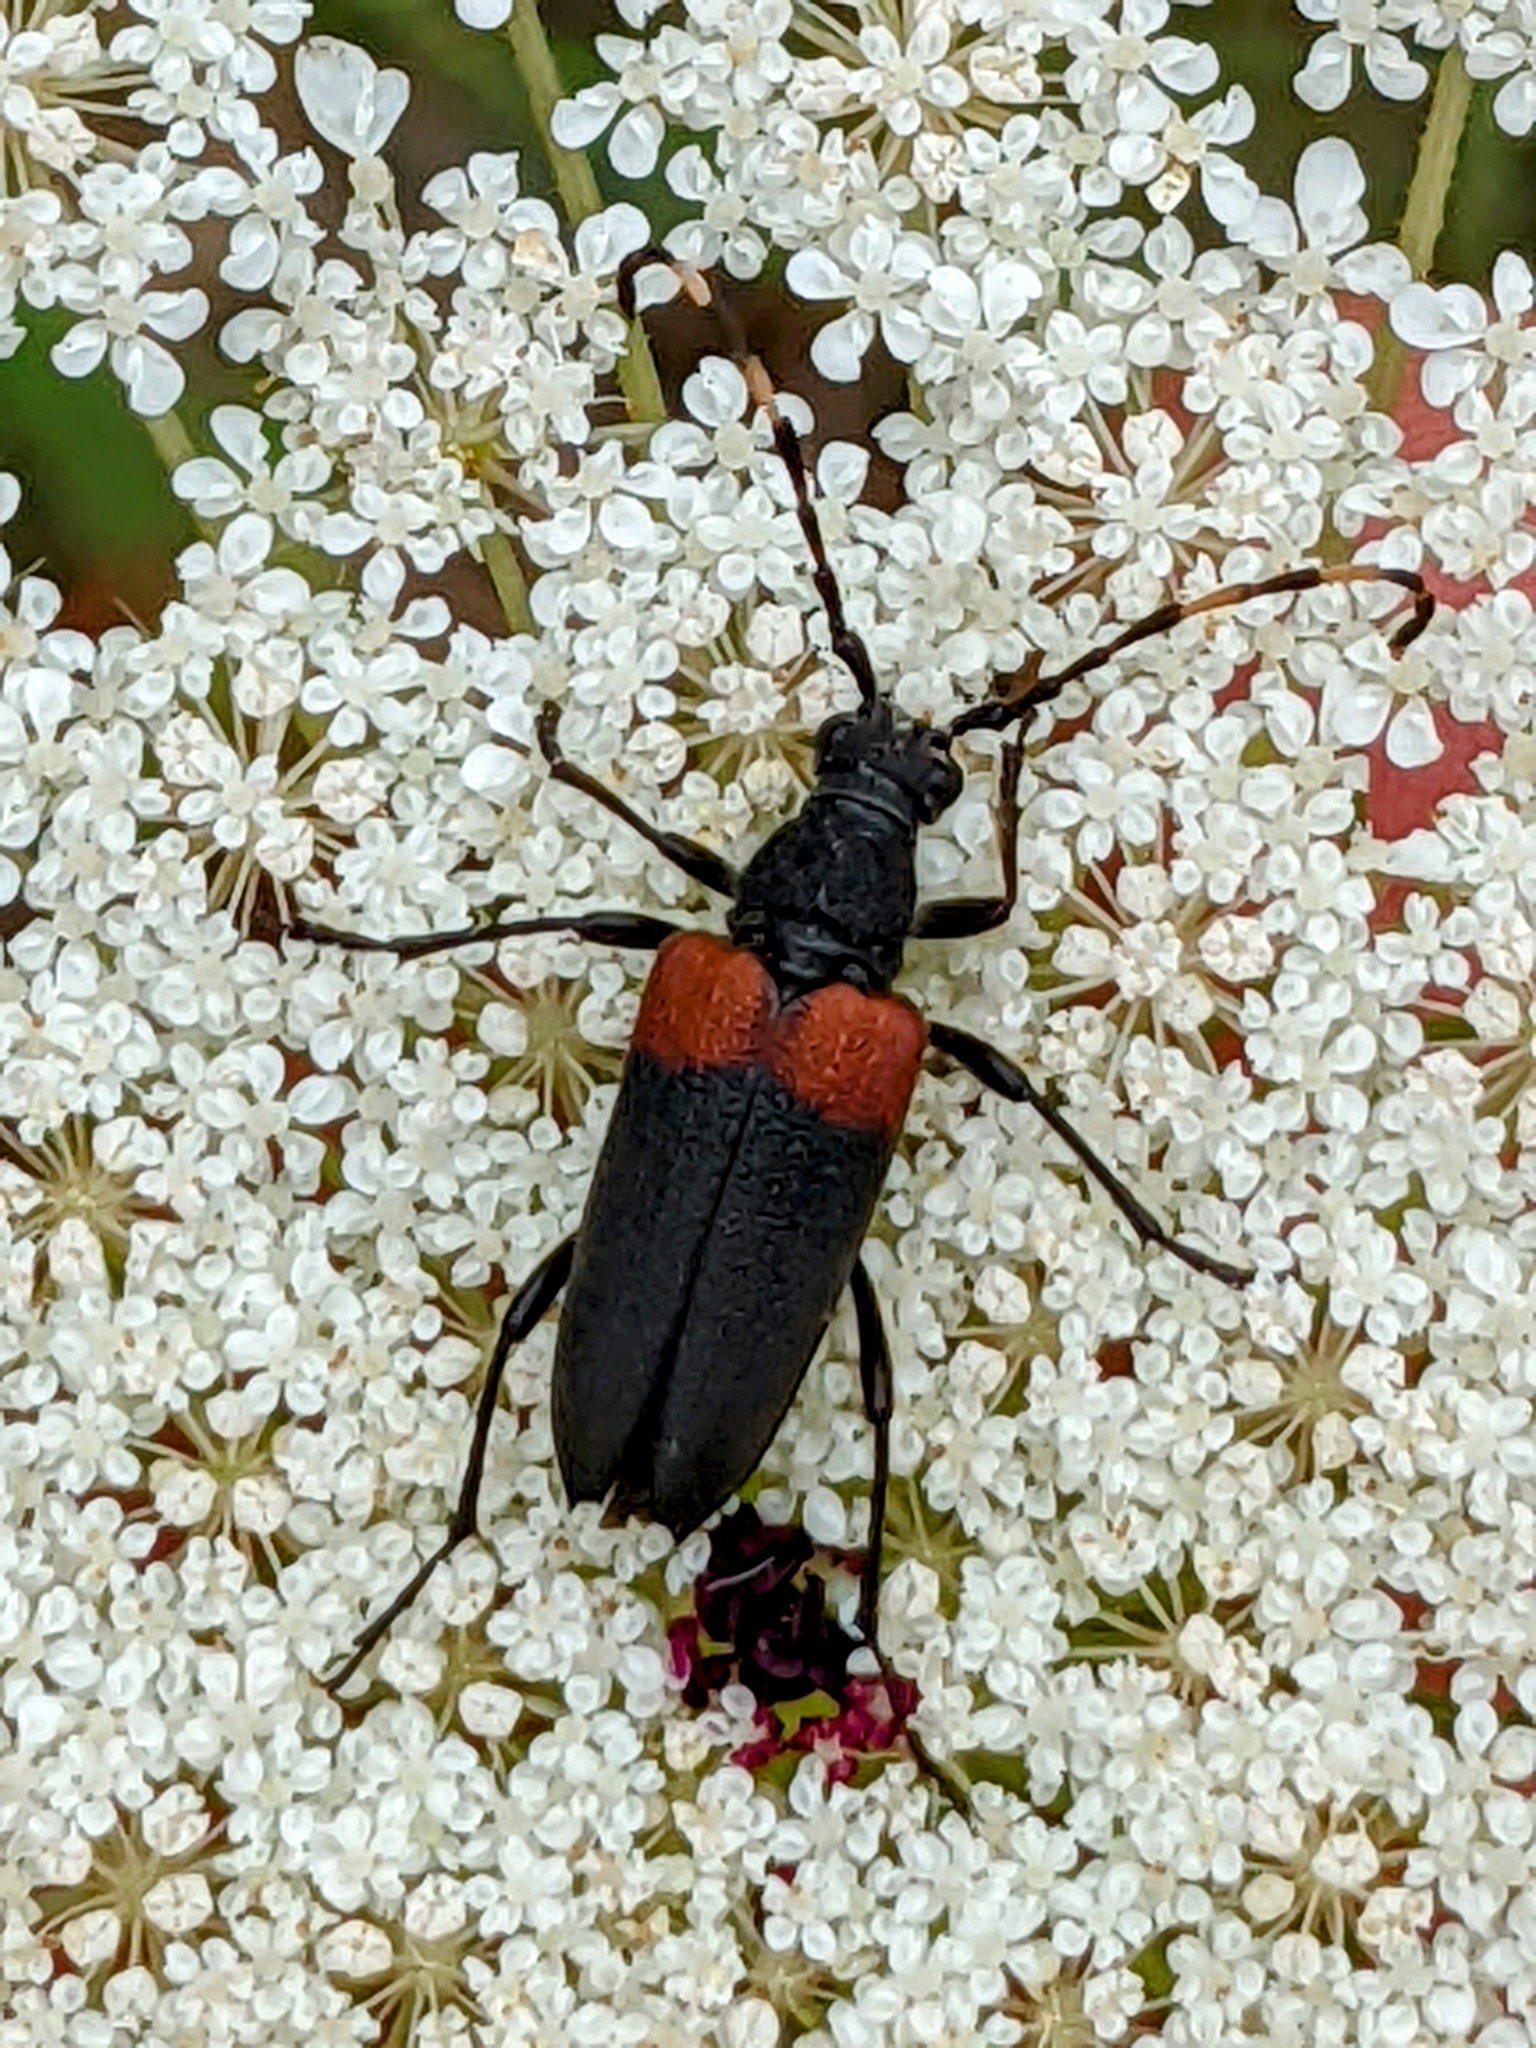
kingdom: Animalia
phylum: Arthropoda
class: Insecta
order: Coleoptera
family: Cerambycidae
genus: Stictoleptura
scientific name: Stictoleptura canadensis
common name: Red-shouldered pine borer
